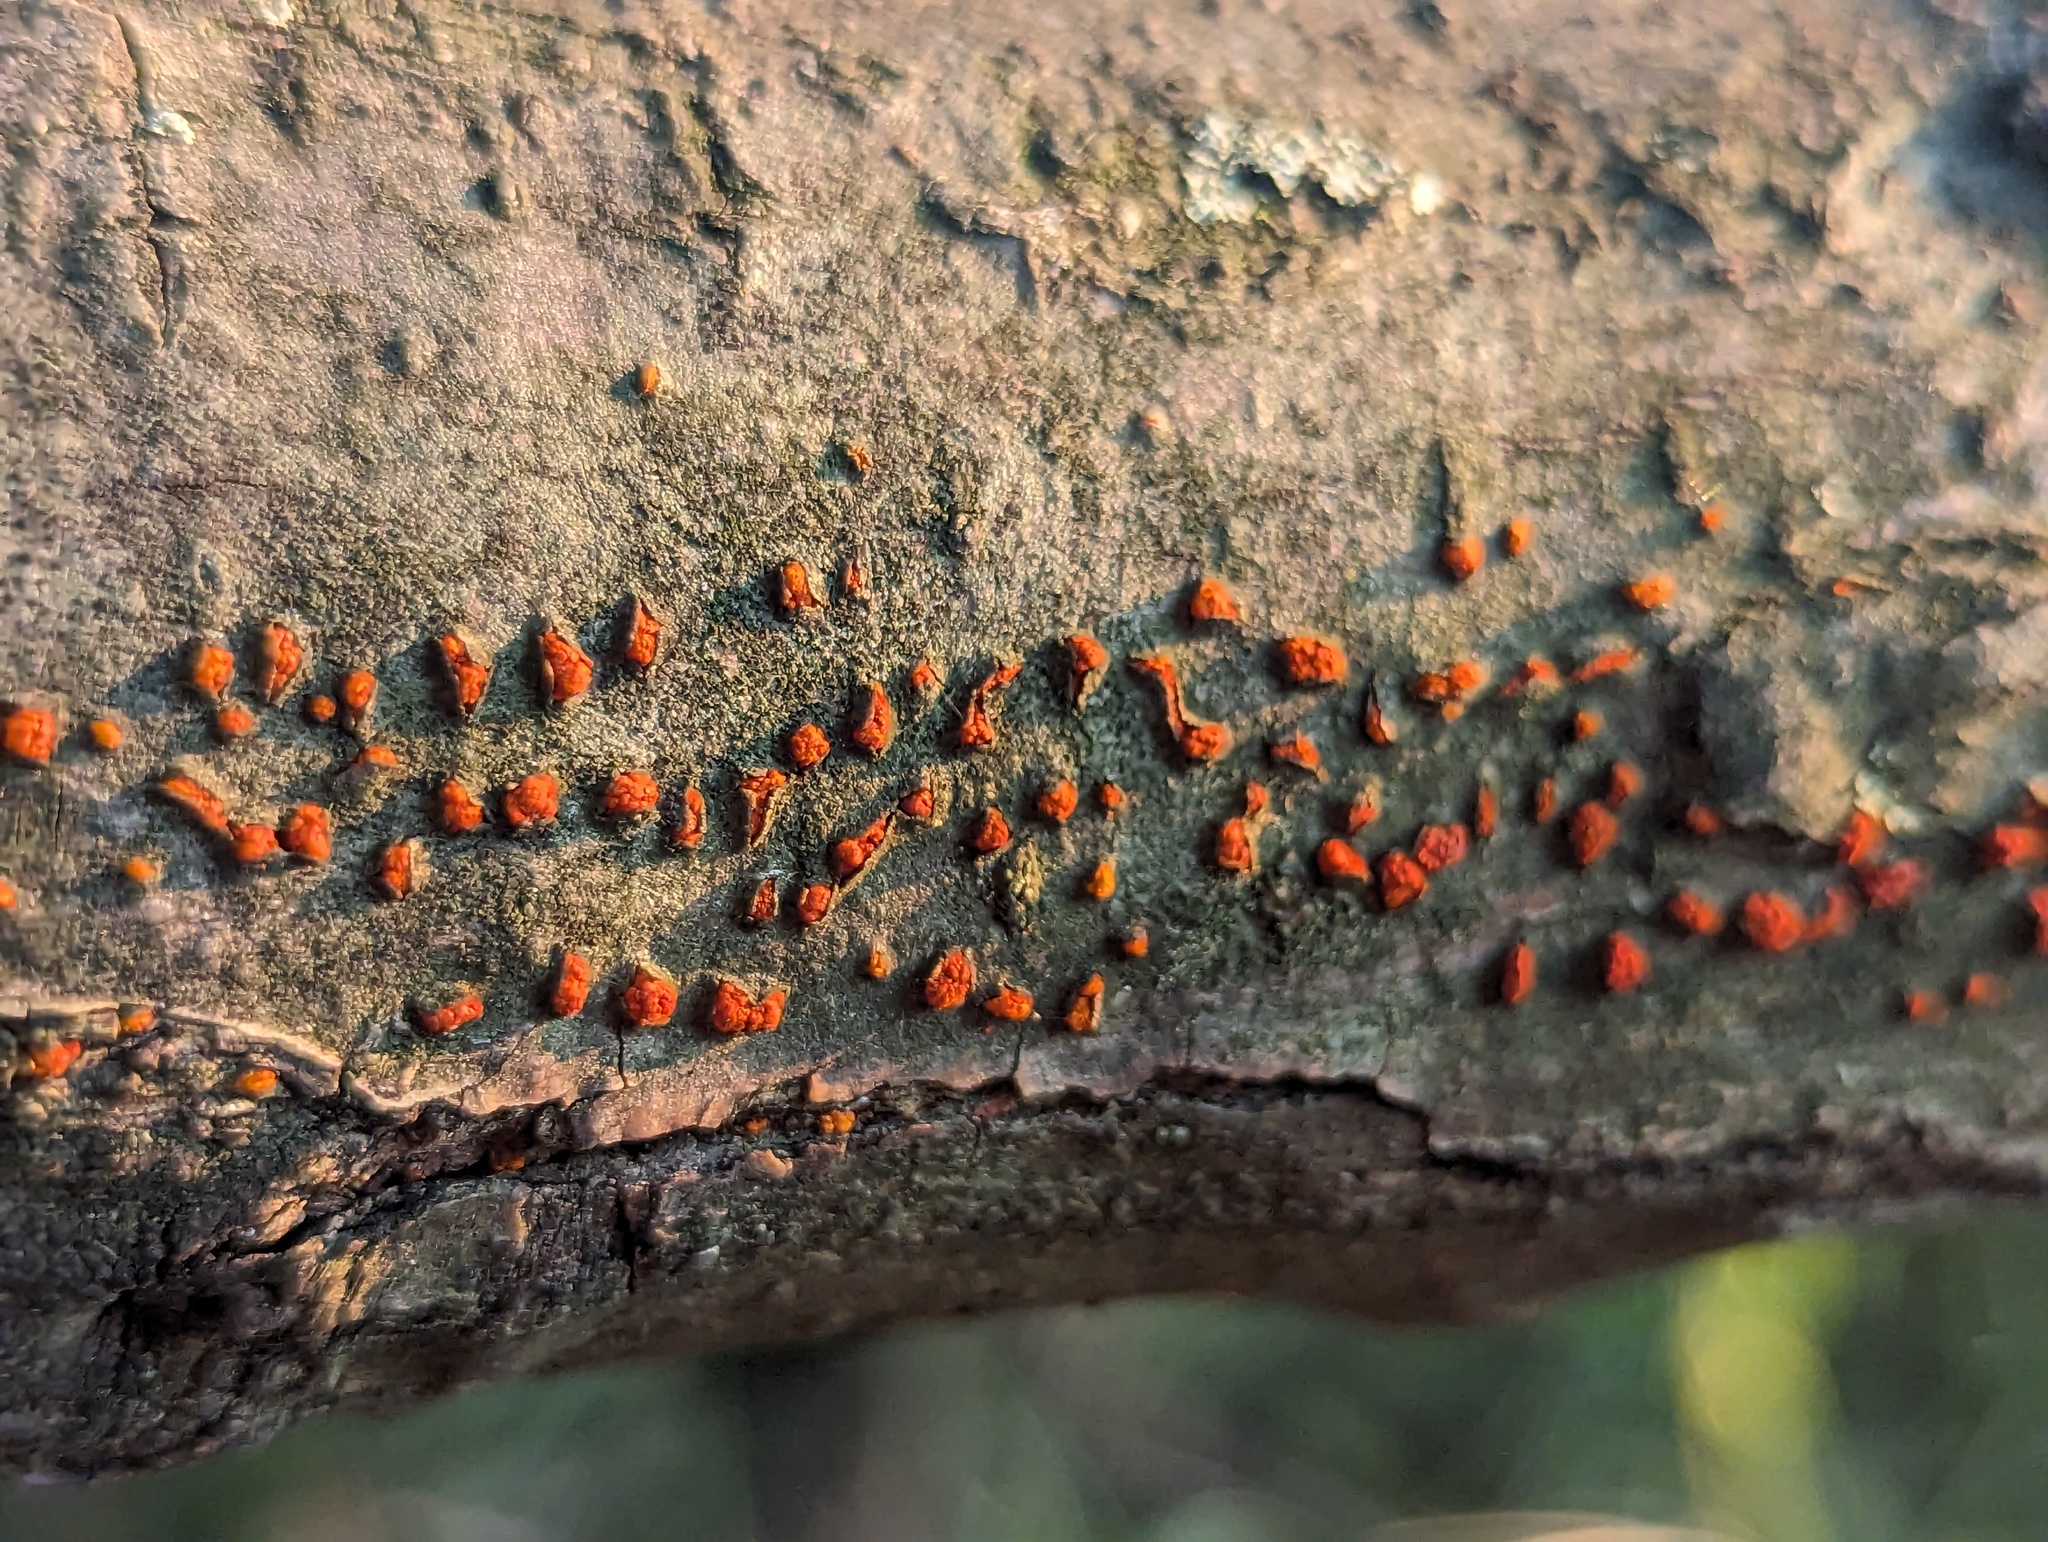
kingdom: Fungi
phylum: Ascomycota
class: Sordariomycetes
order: Diaporthales
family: Cryphonectriaceae
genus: Amphilogia
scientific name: Amphilogia gyrosa
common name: Orange hobnail canker
